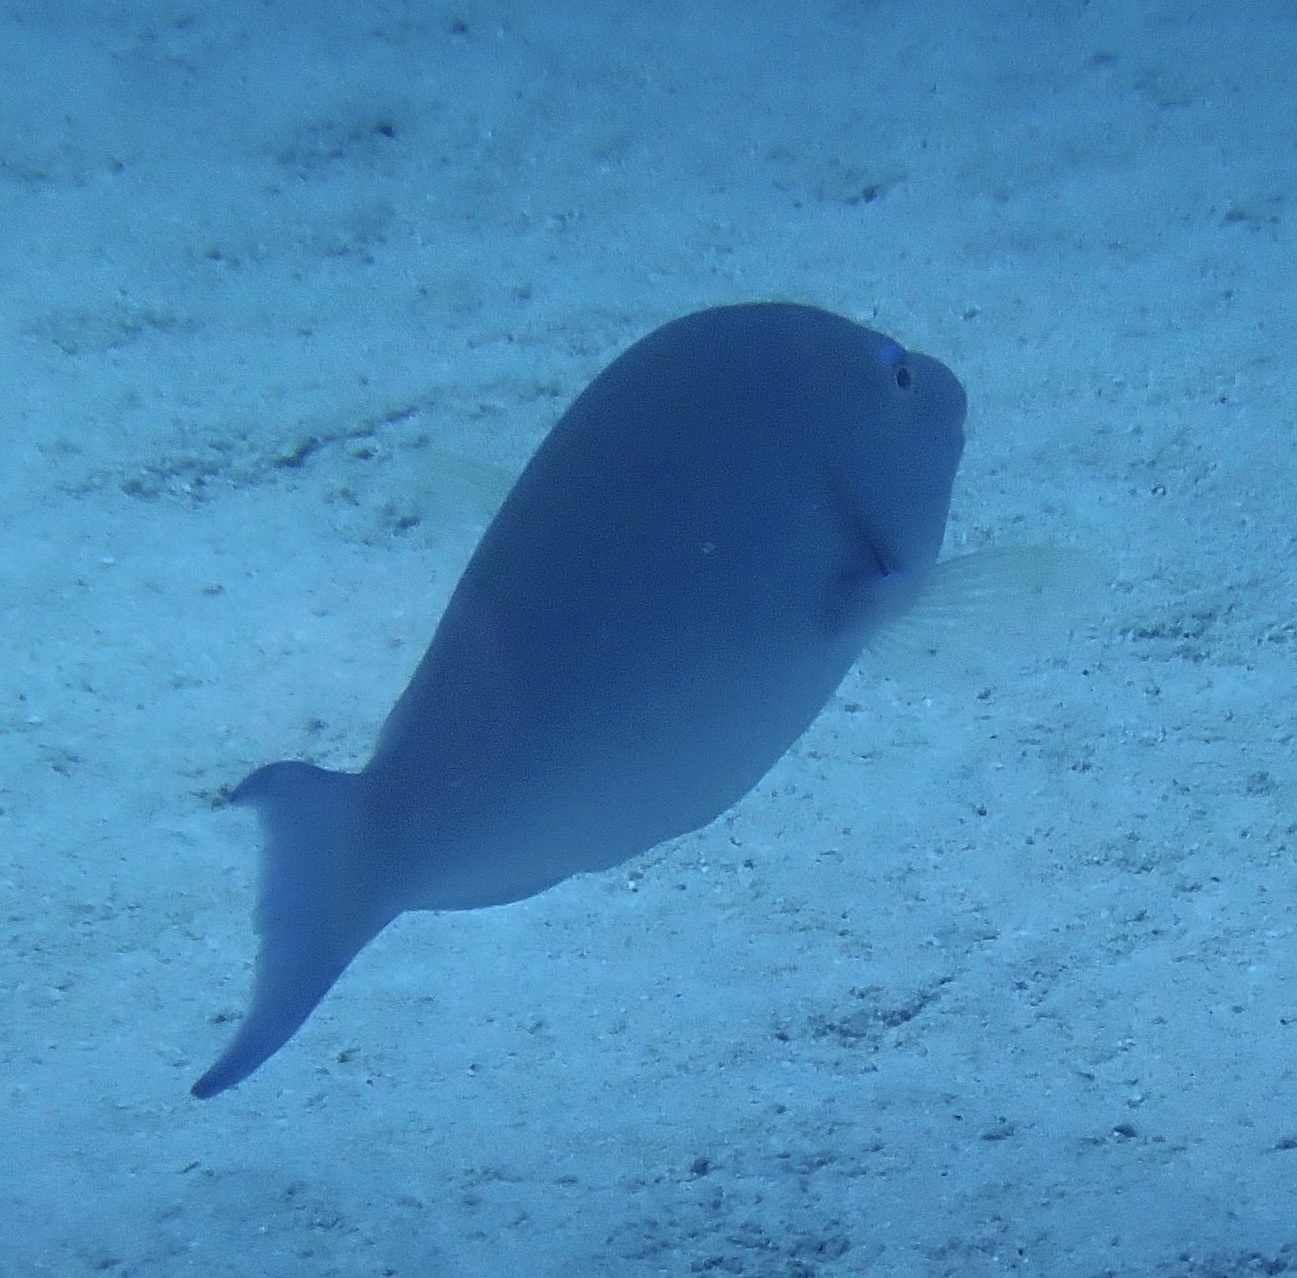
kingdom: Animalia
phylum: Chordata
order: Perciformes
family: Scaridae
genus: Hipposcarus
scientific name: Hipposcarus harid
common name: Candelamoa parrotfish
